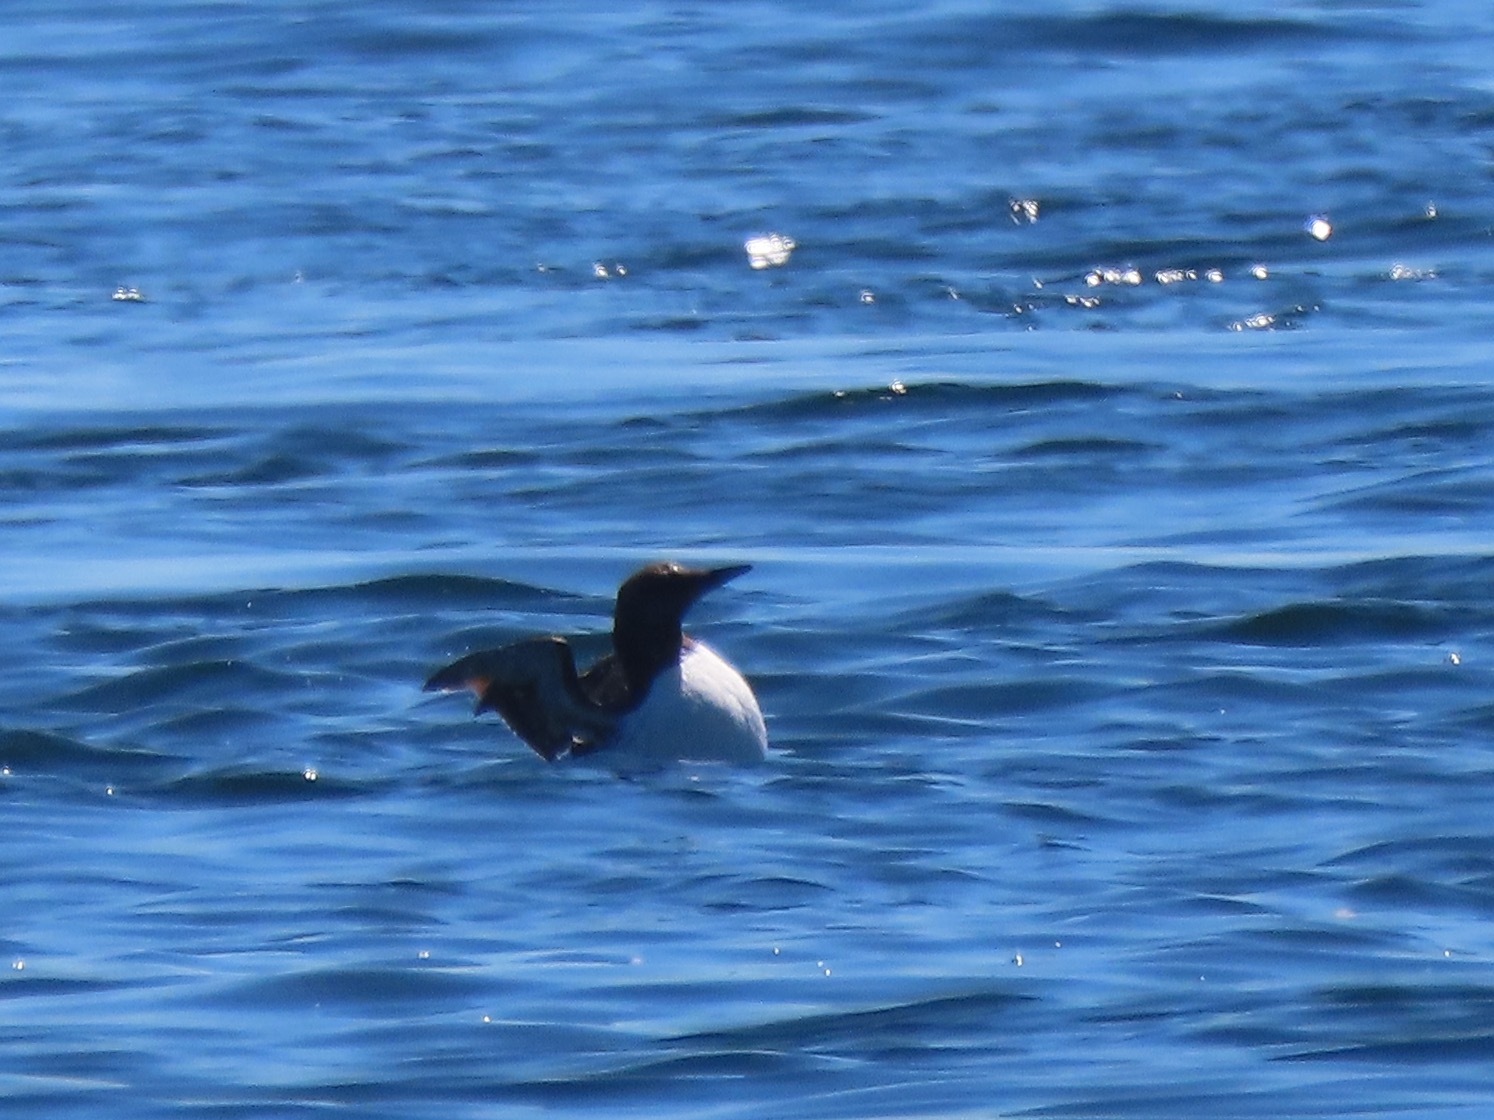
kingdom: Animalia
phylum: Chordata
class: Aves
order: Charadriiformes
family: Alcidae
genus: Uria
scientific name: Uria aalge
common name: Common murre
